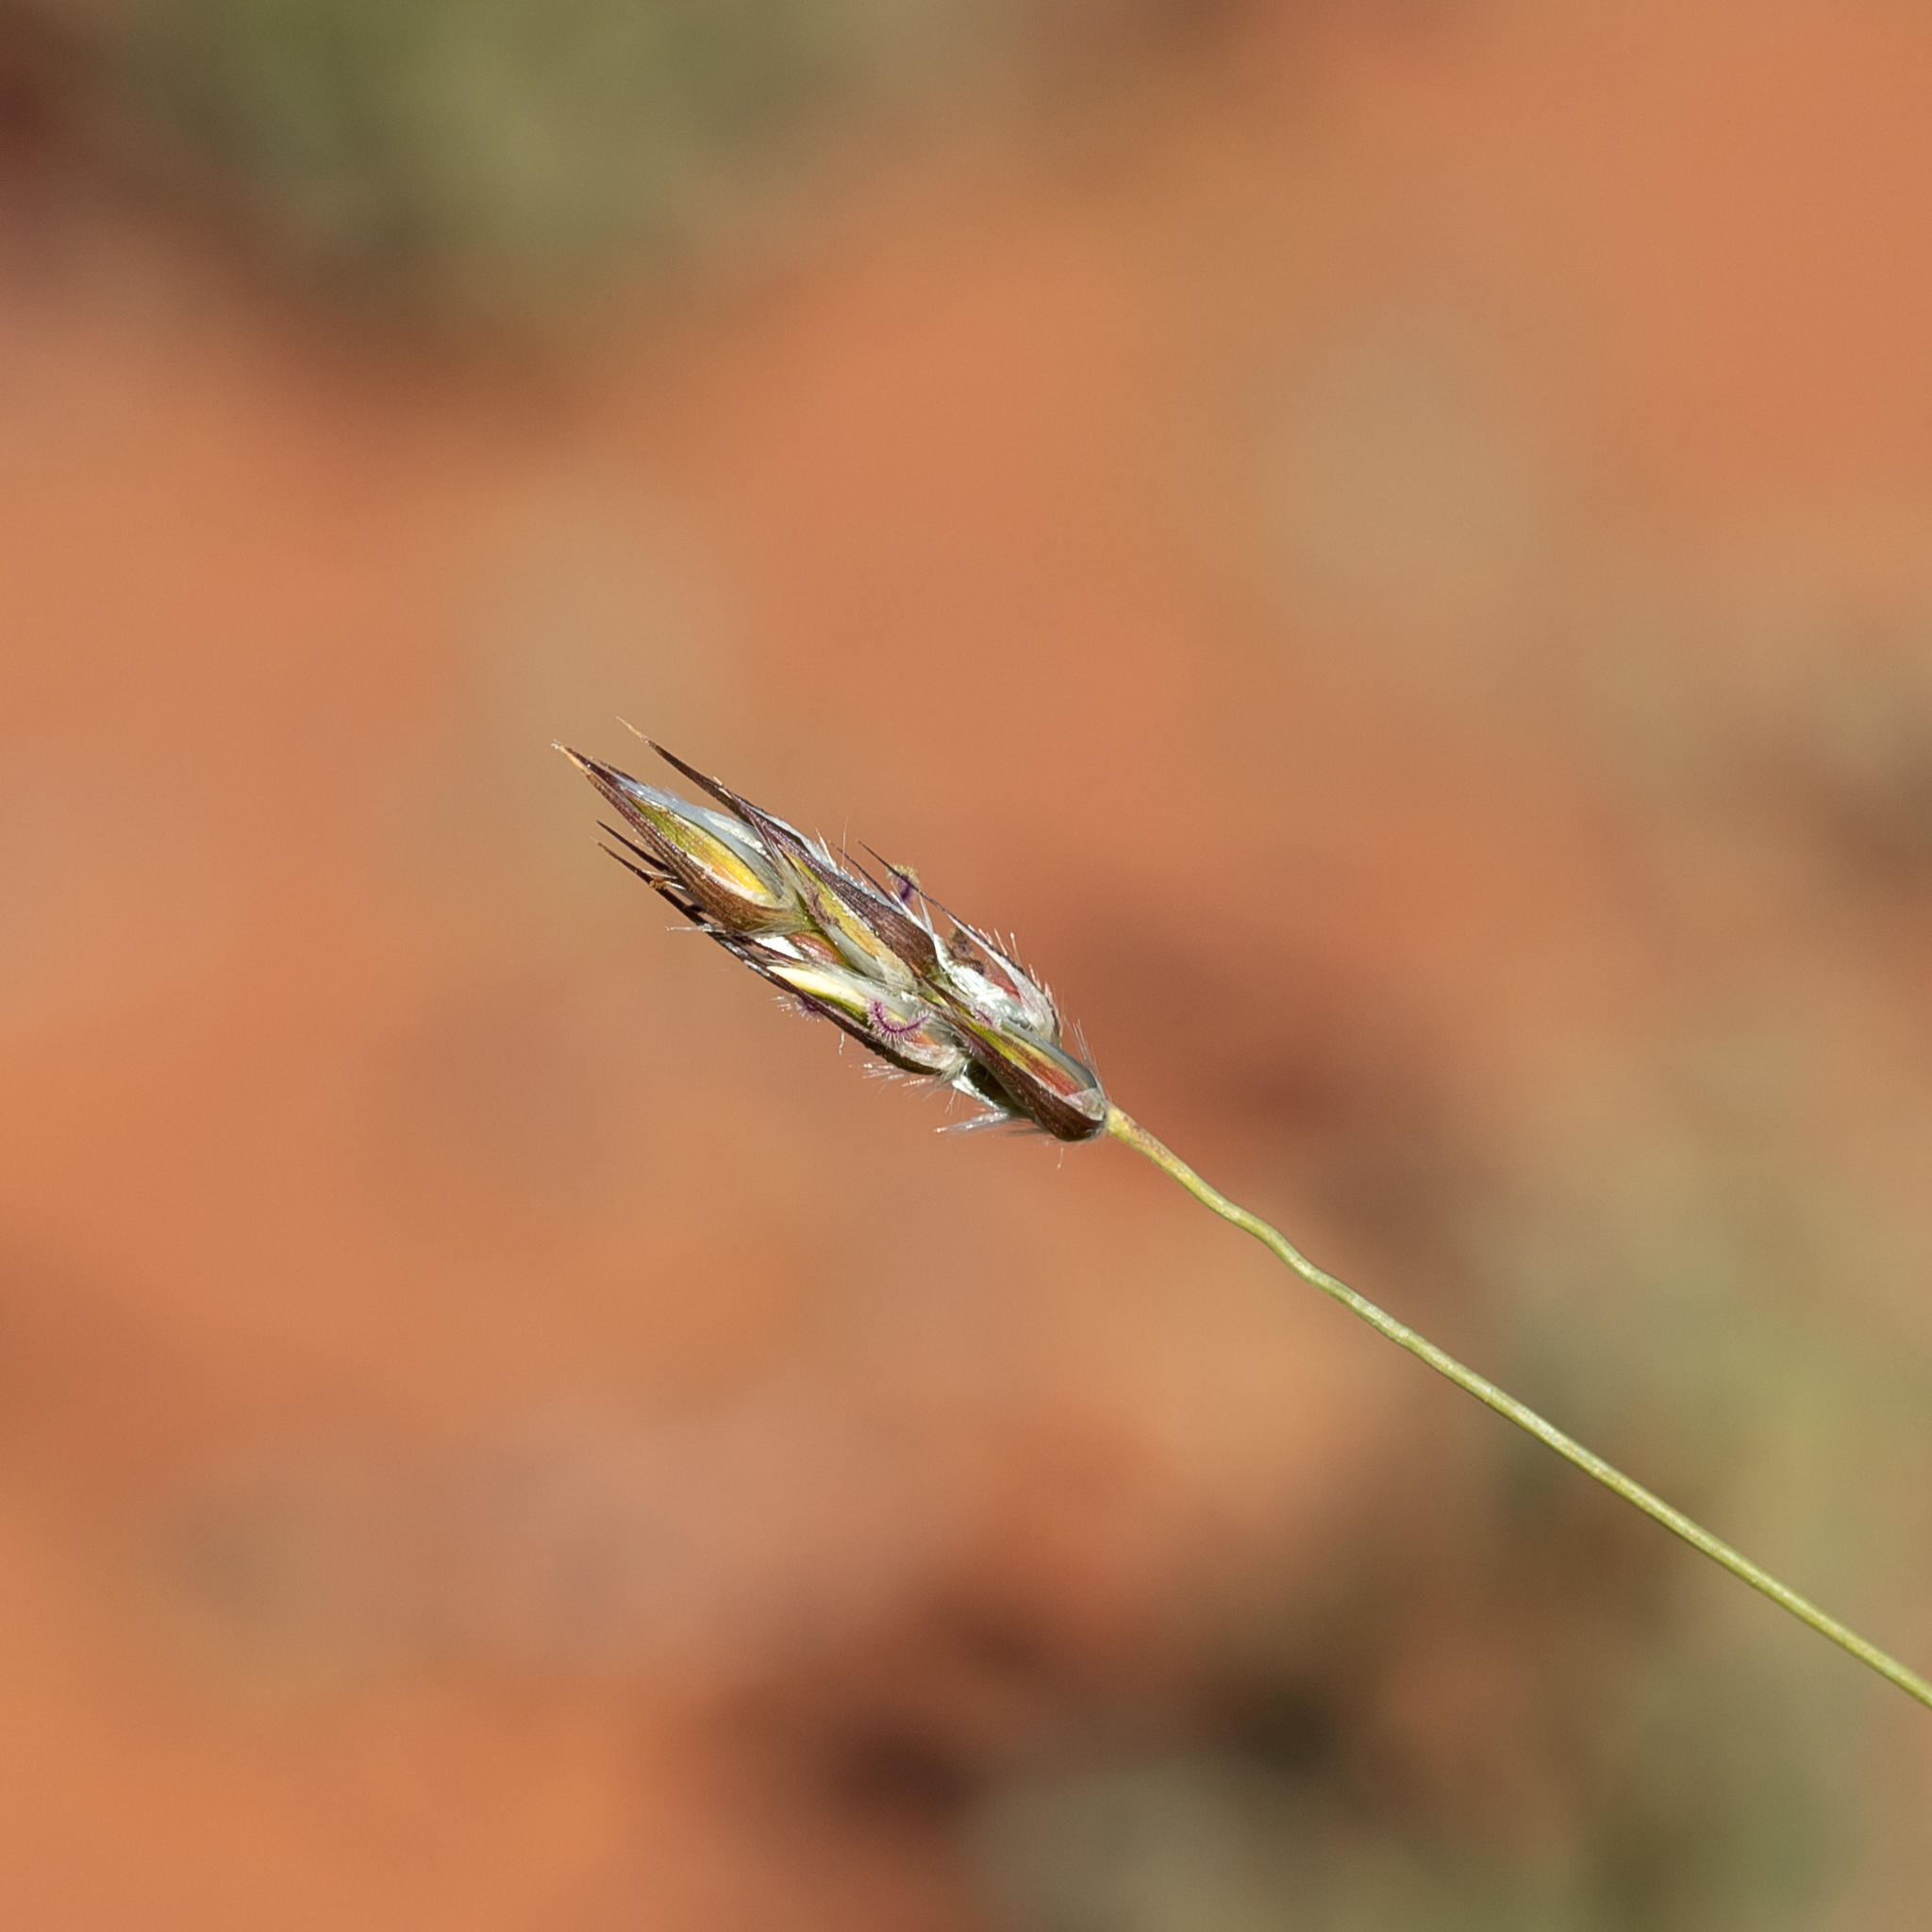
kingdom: Plantae
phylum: Tracheophyta
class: Liliopsida
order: Poales
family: Poaceae
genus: Neurachne
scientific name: Neurachne muelleri
